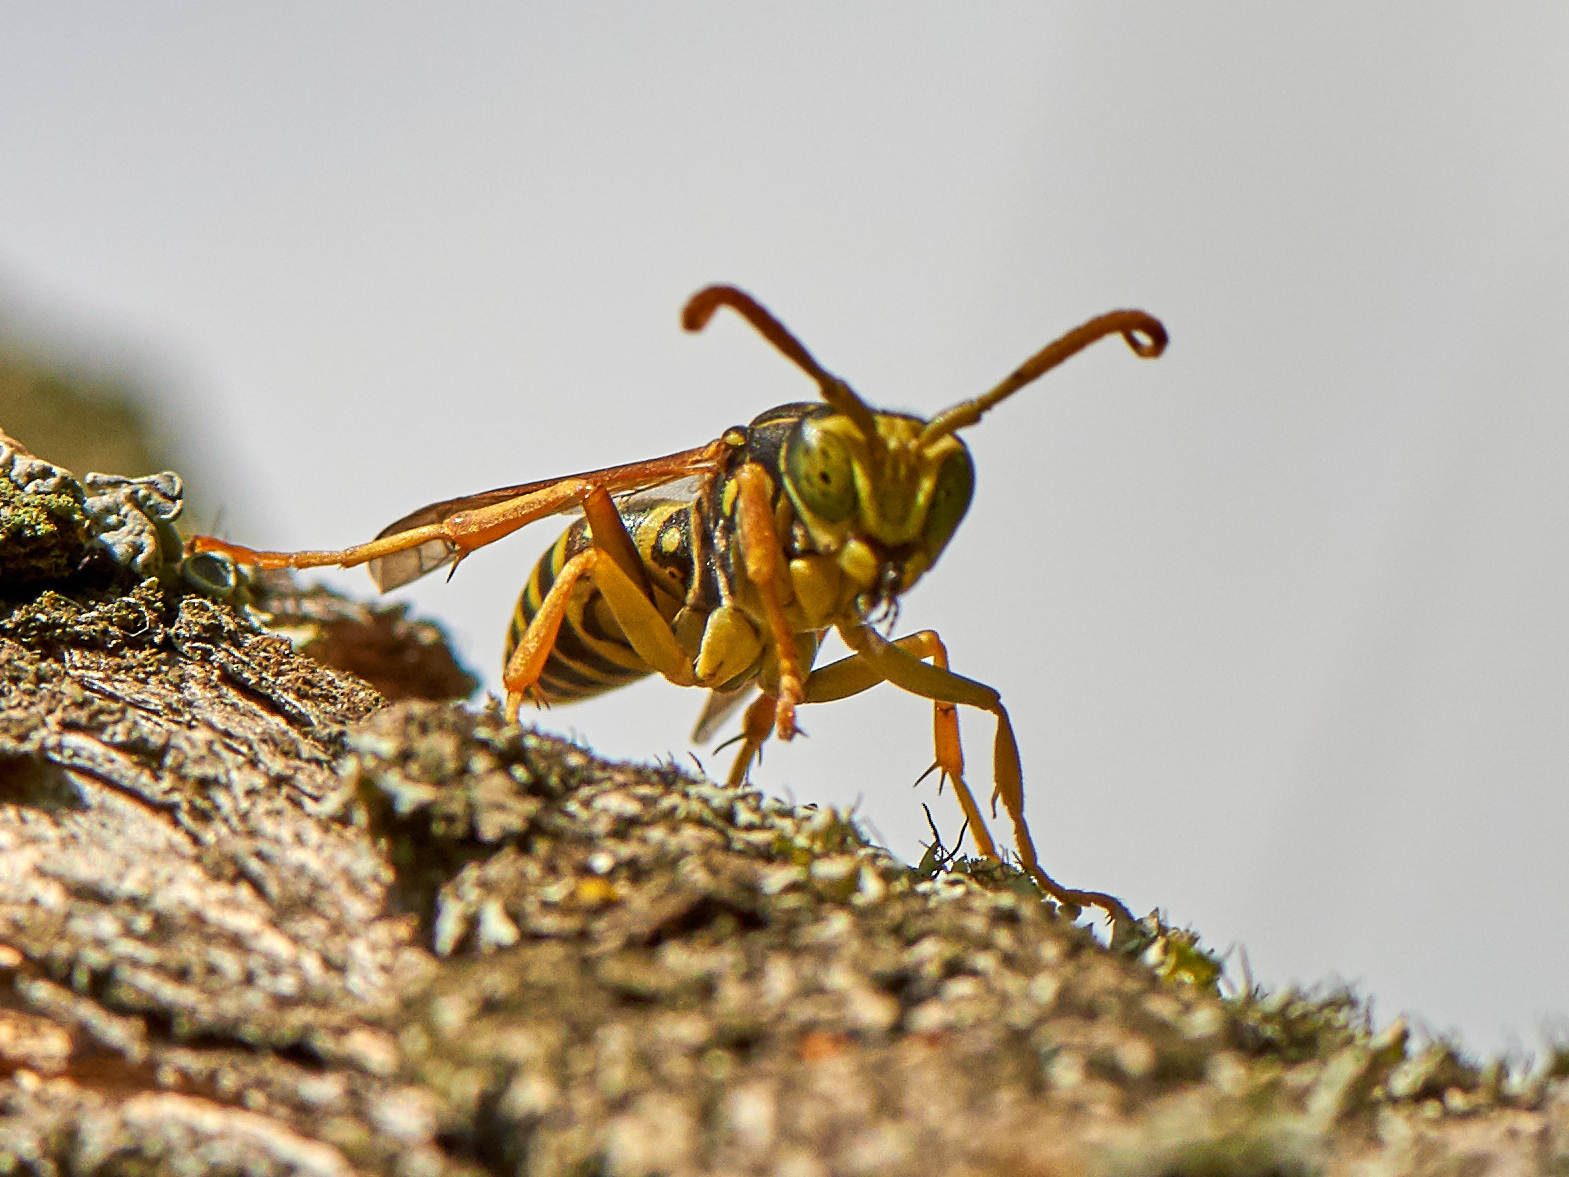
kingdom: Animalia
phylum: Arthropoda
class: Insecta
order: Hymenoptera
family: Eumenidae
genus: Polistes
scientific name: Polistes nimpha
